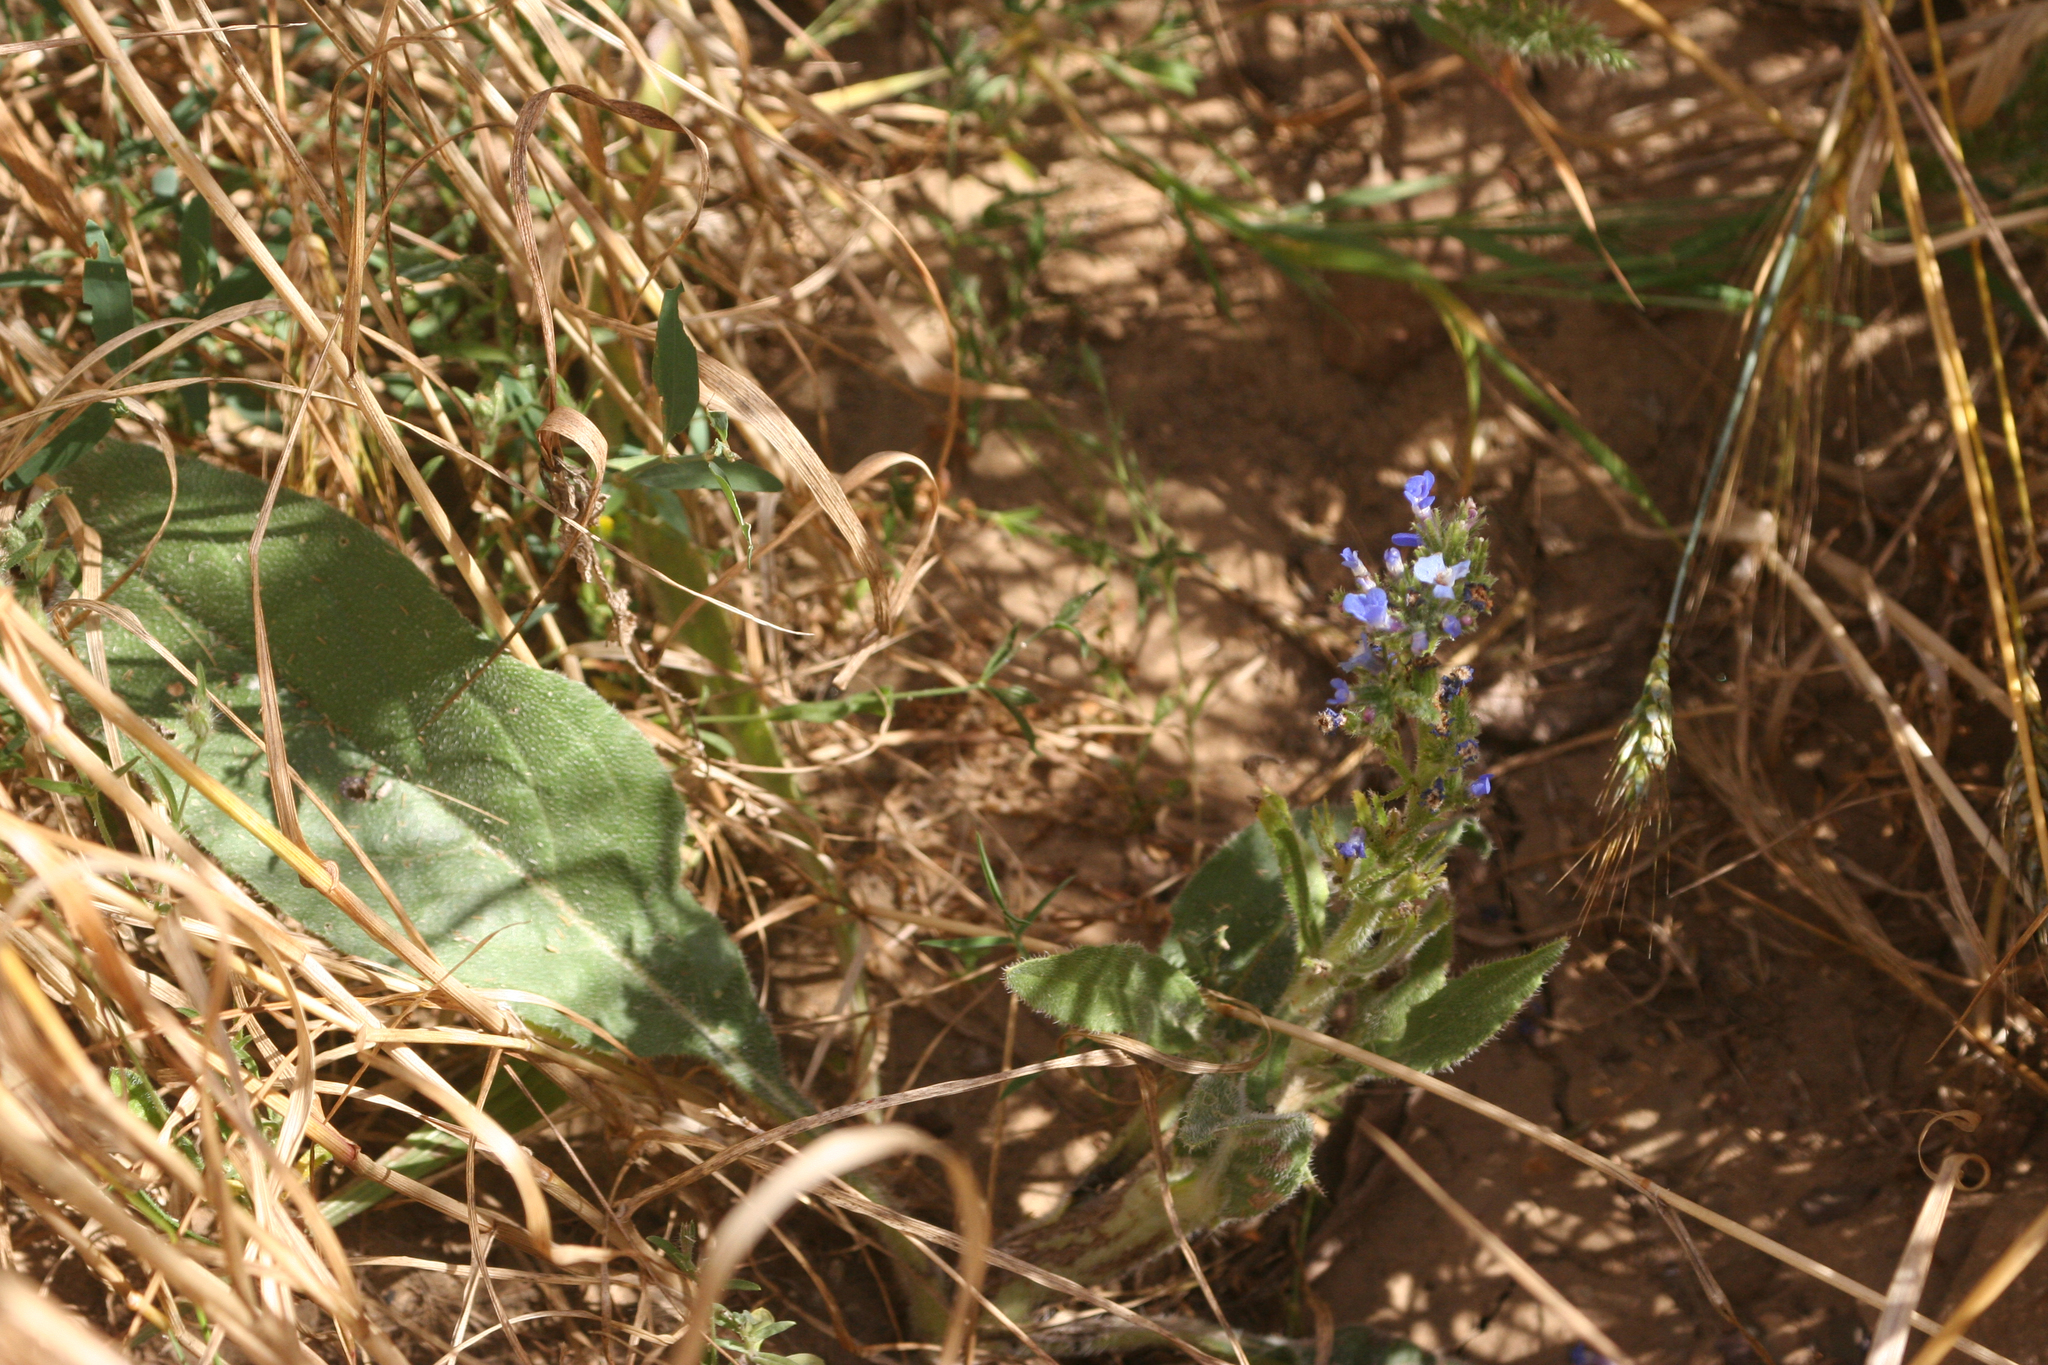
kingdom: Plantae
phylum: Tracheophyta
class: Magnoliopsida
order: Boraginales
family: Boraginaceae
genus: Anchusa
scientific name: Anchusa azurea
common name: Garden anchusa
